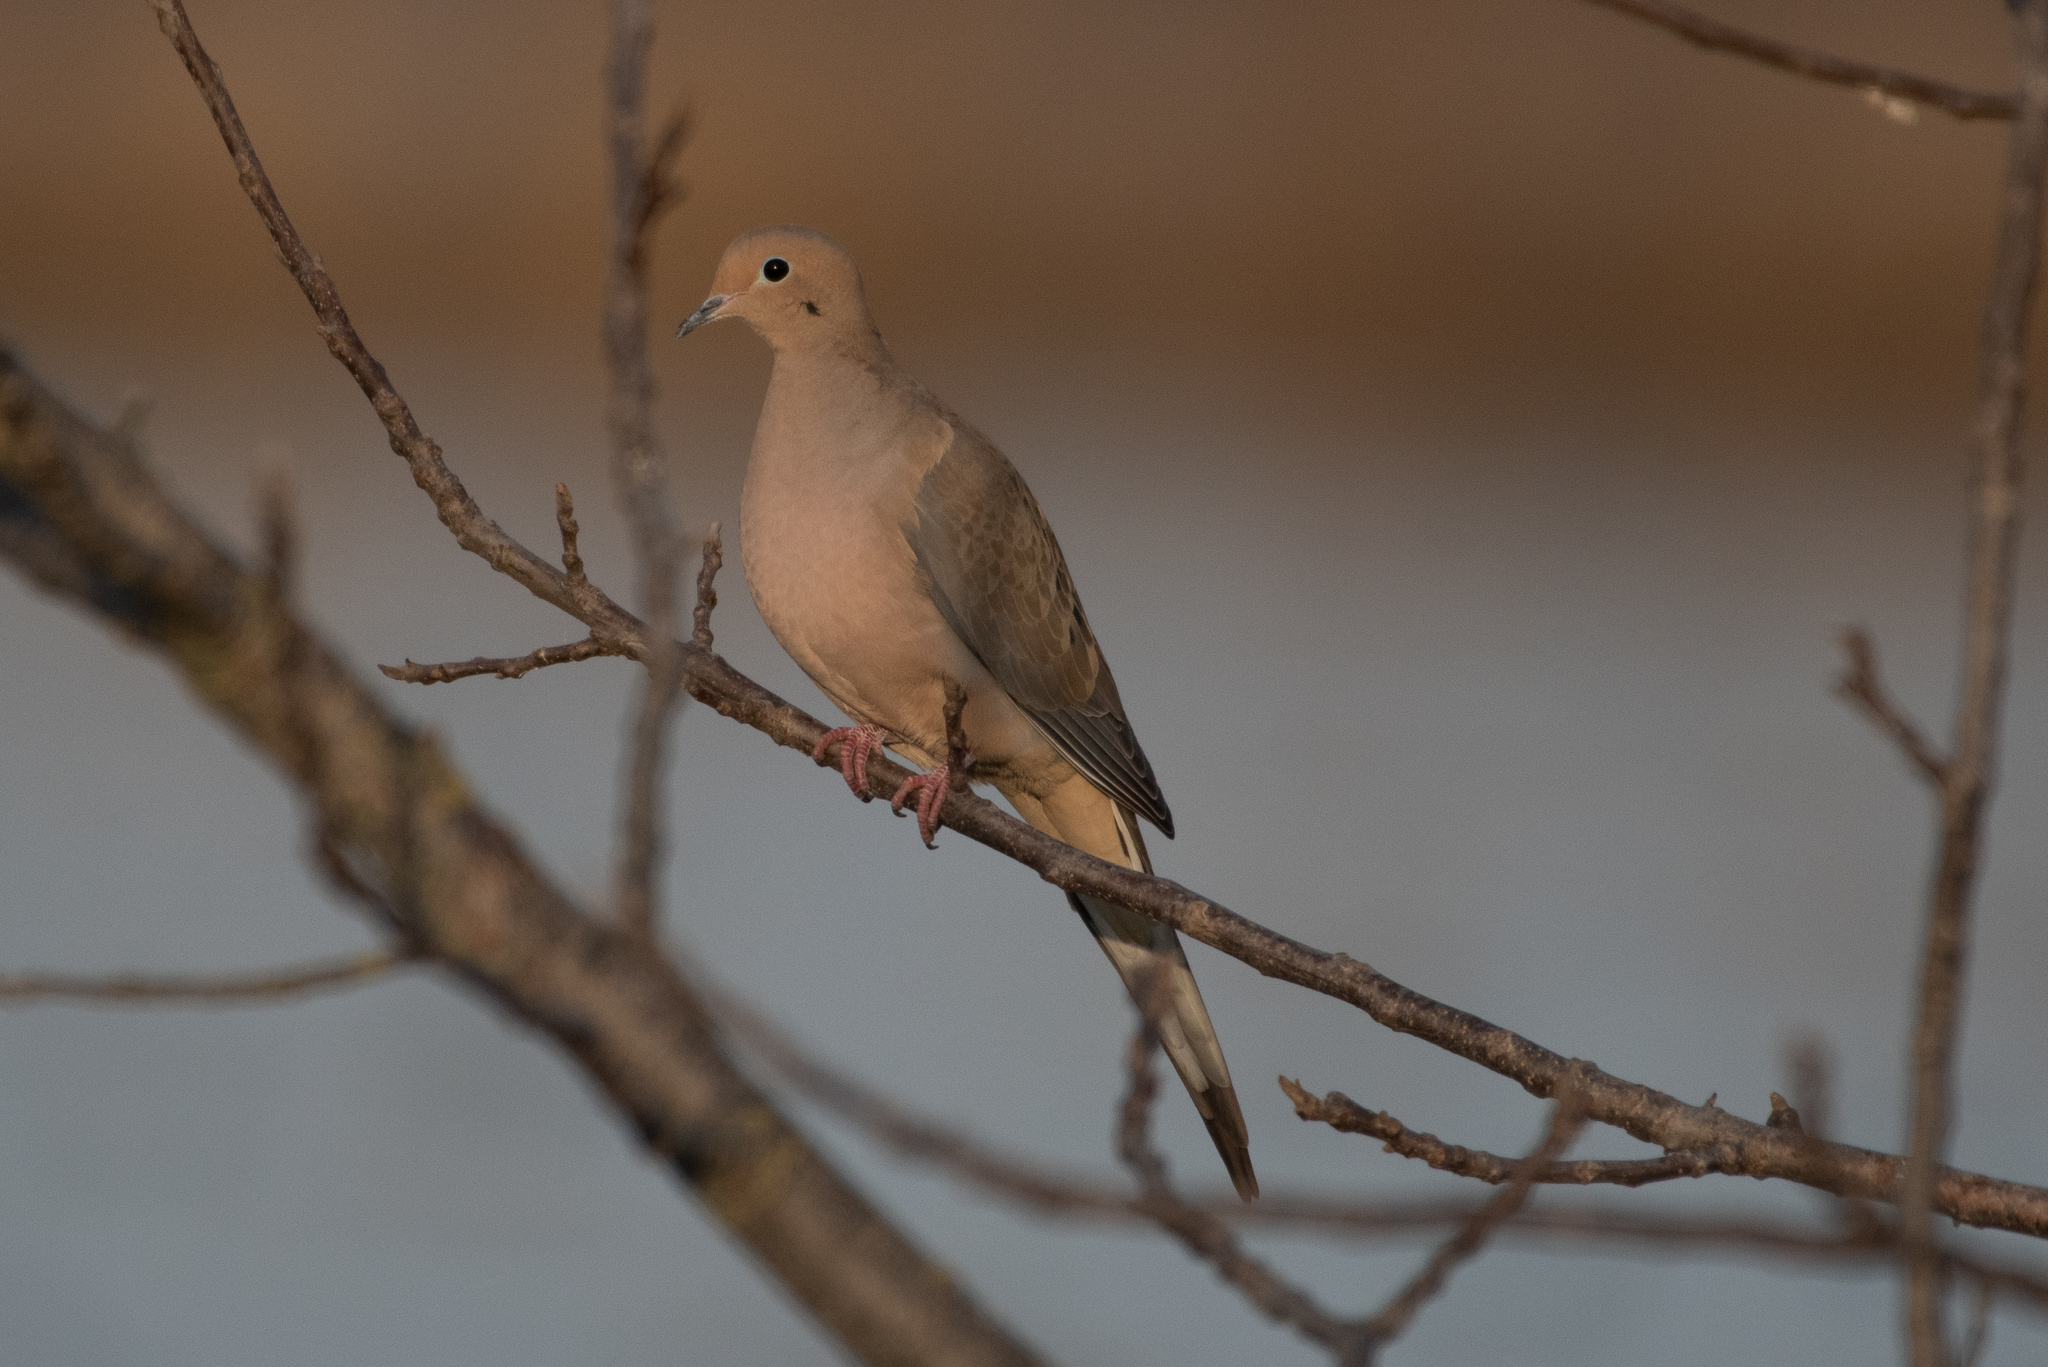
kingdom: Animalia
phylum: Chordata
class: Aves
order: Columbiformes
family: Columbidae
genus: Zenaida
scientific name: Zenaida macroura
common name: Mourning dove
